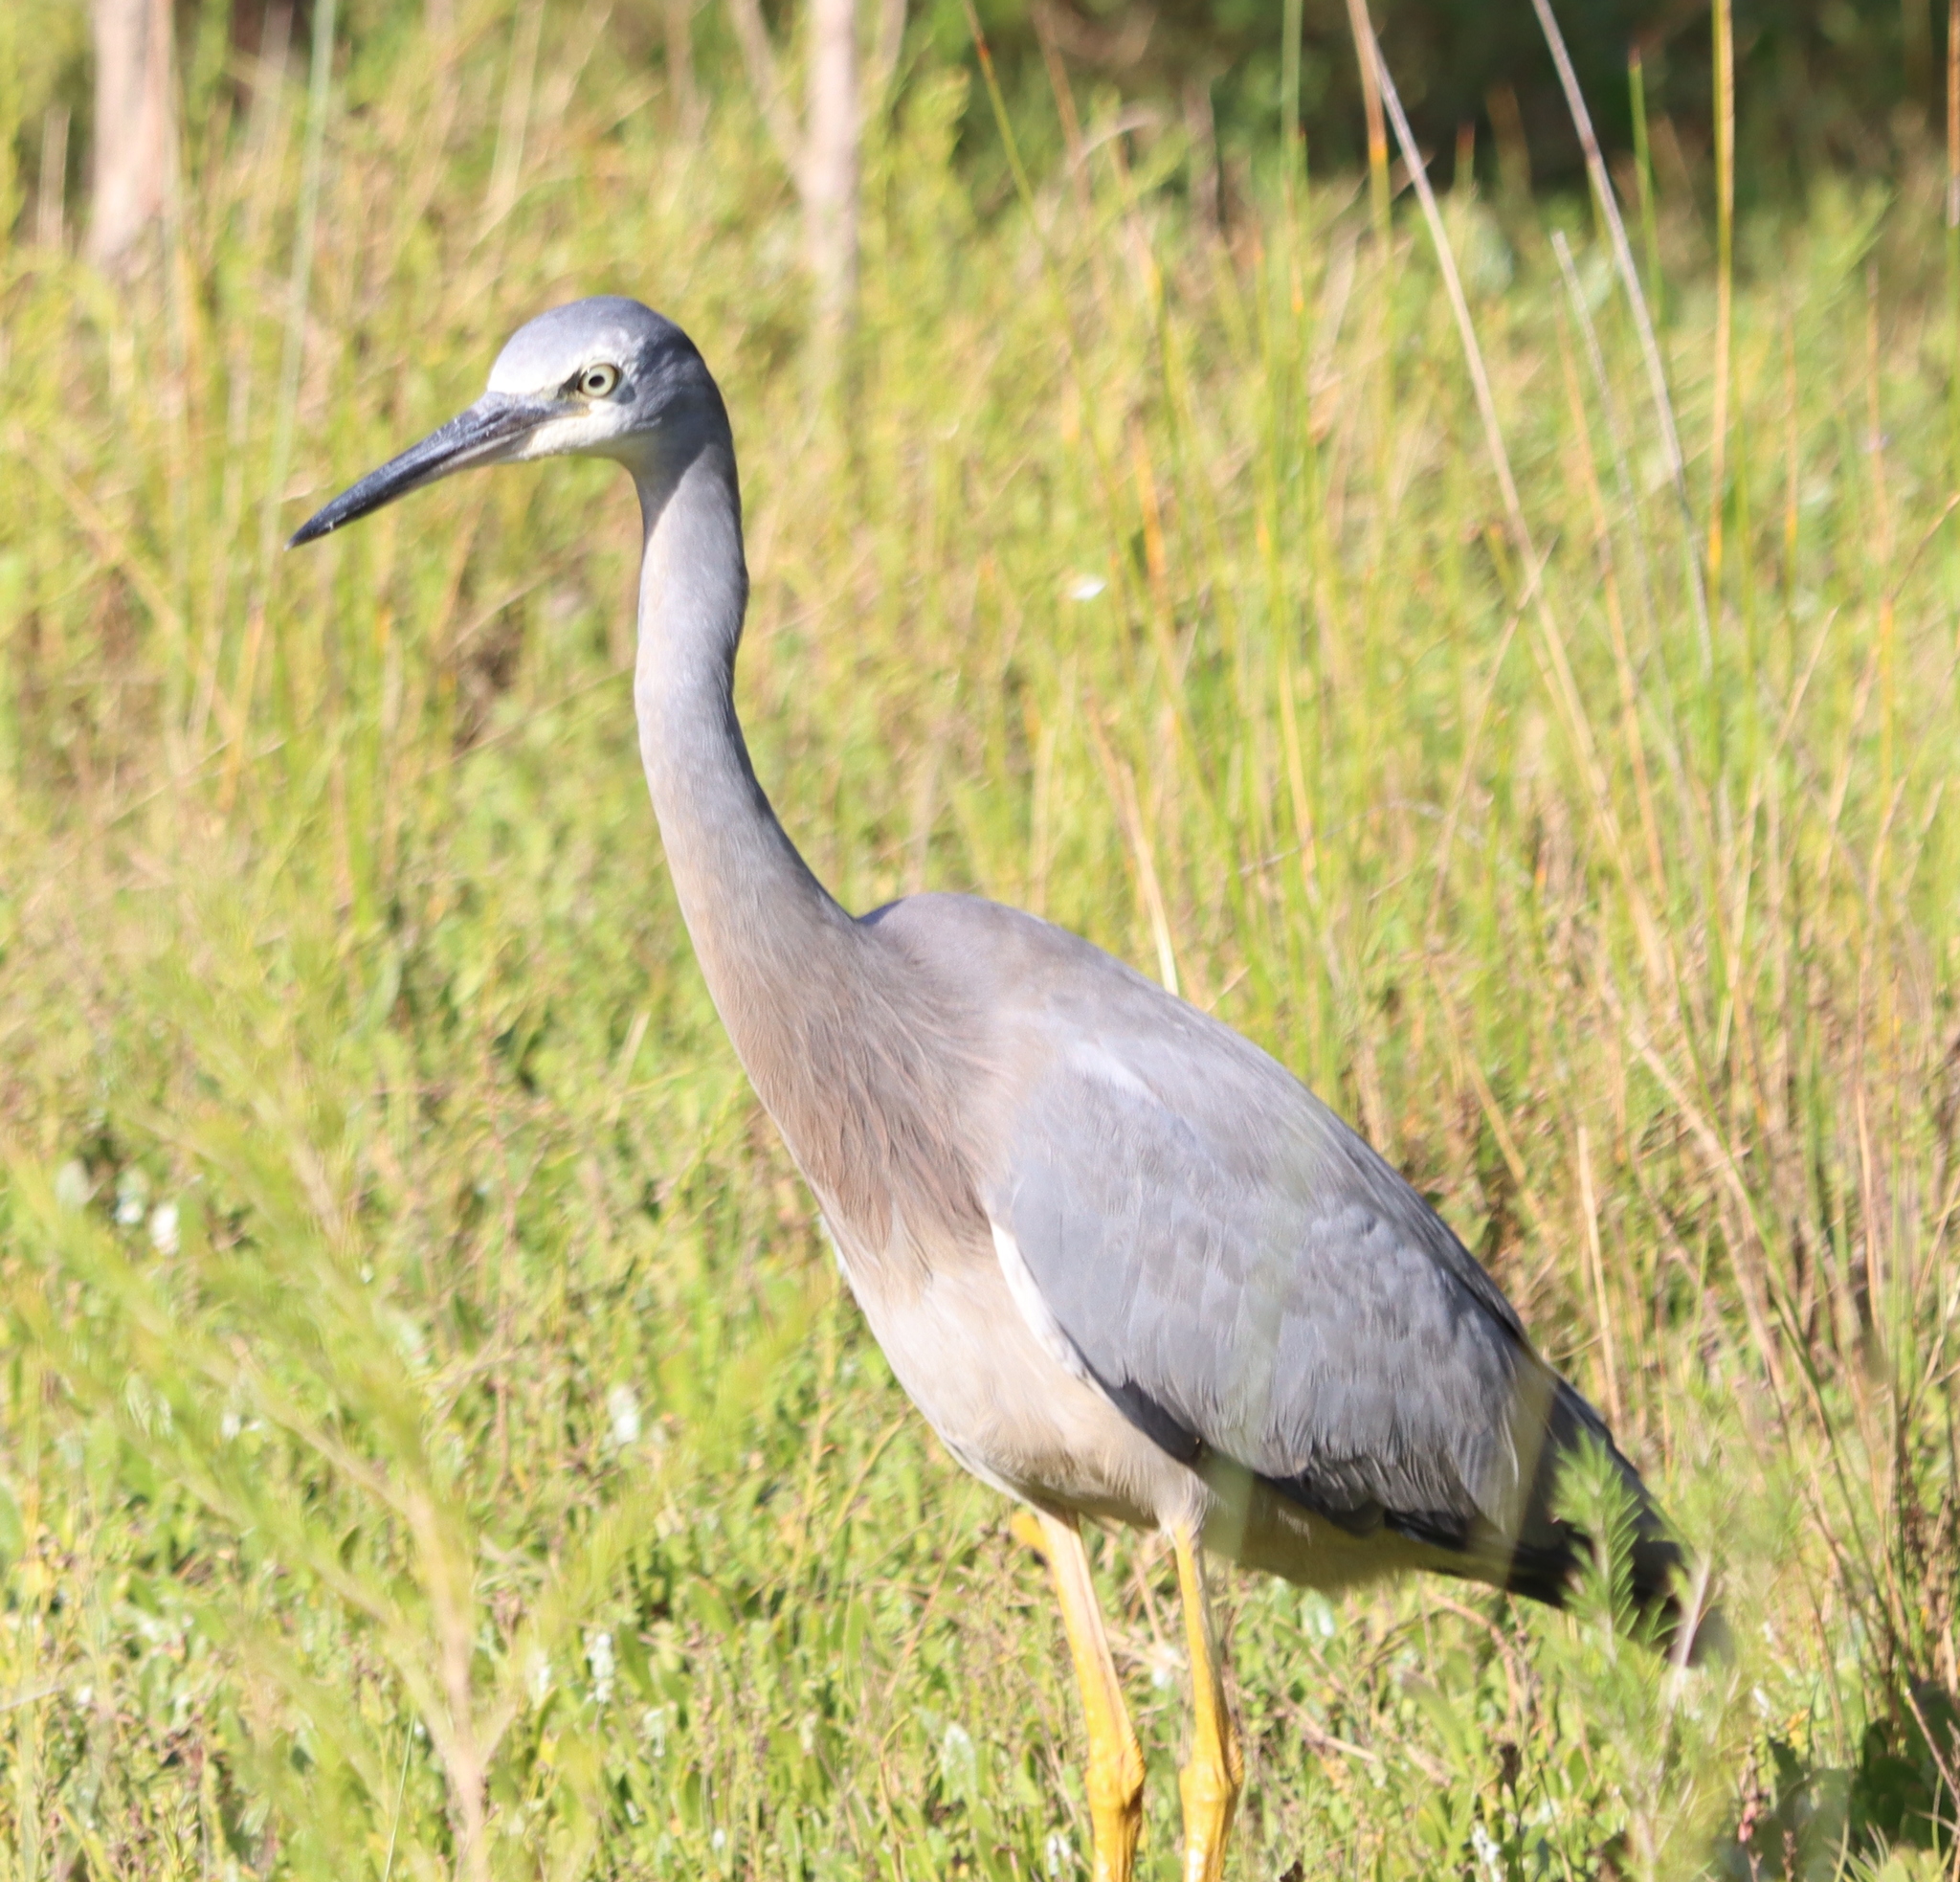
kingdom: Animalia
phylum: Chordata
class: Aves
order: Pelecaniformes
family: Ardeidae
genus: Egretta
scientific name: Egretta novaehollandiae
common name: White-faced heron
